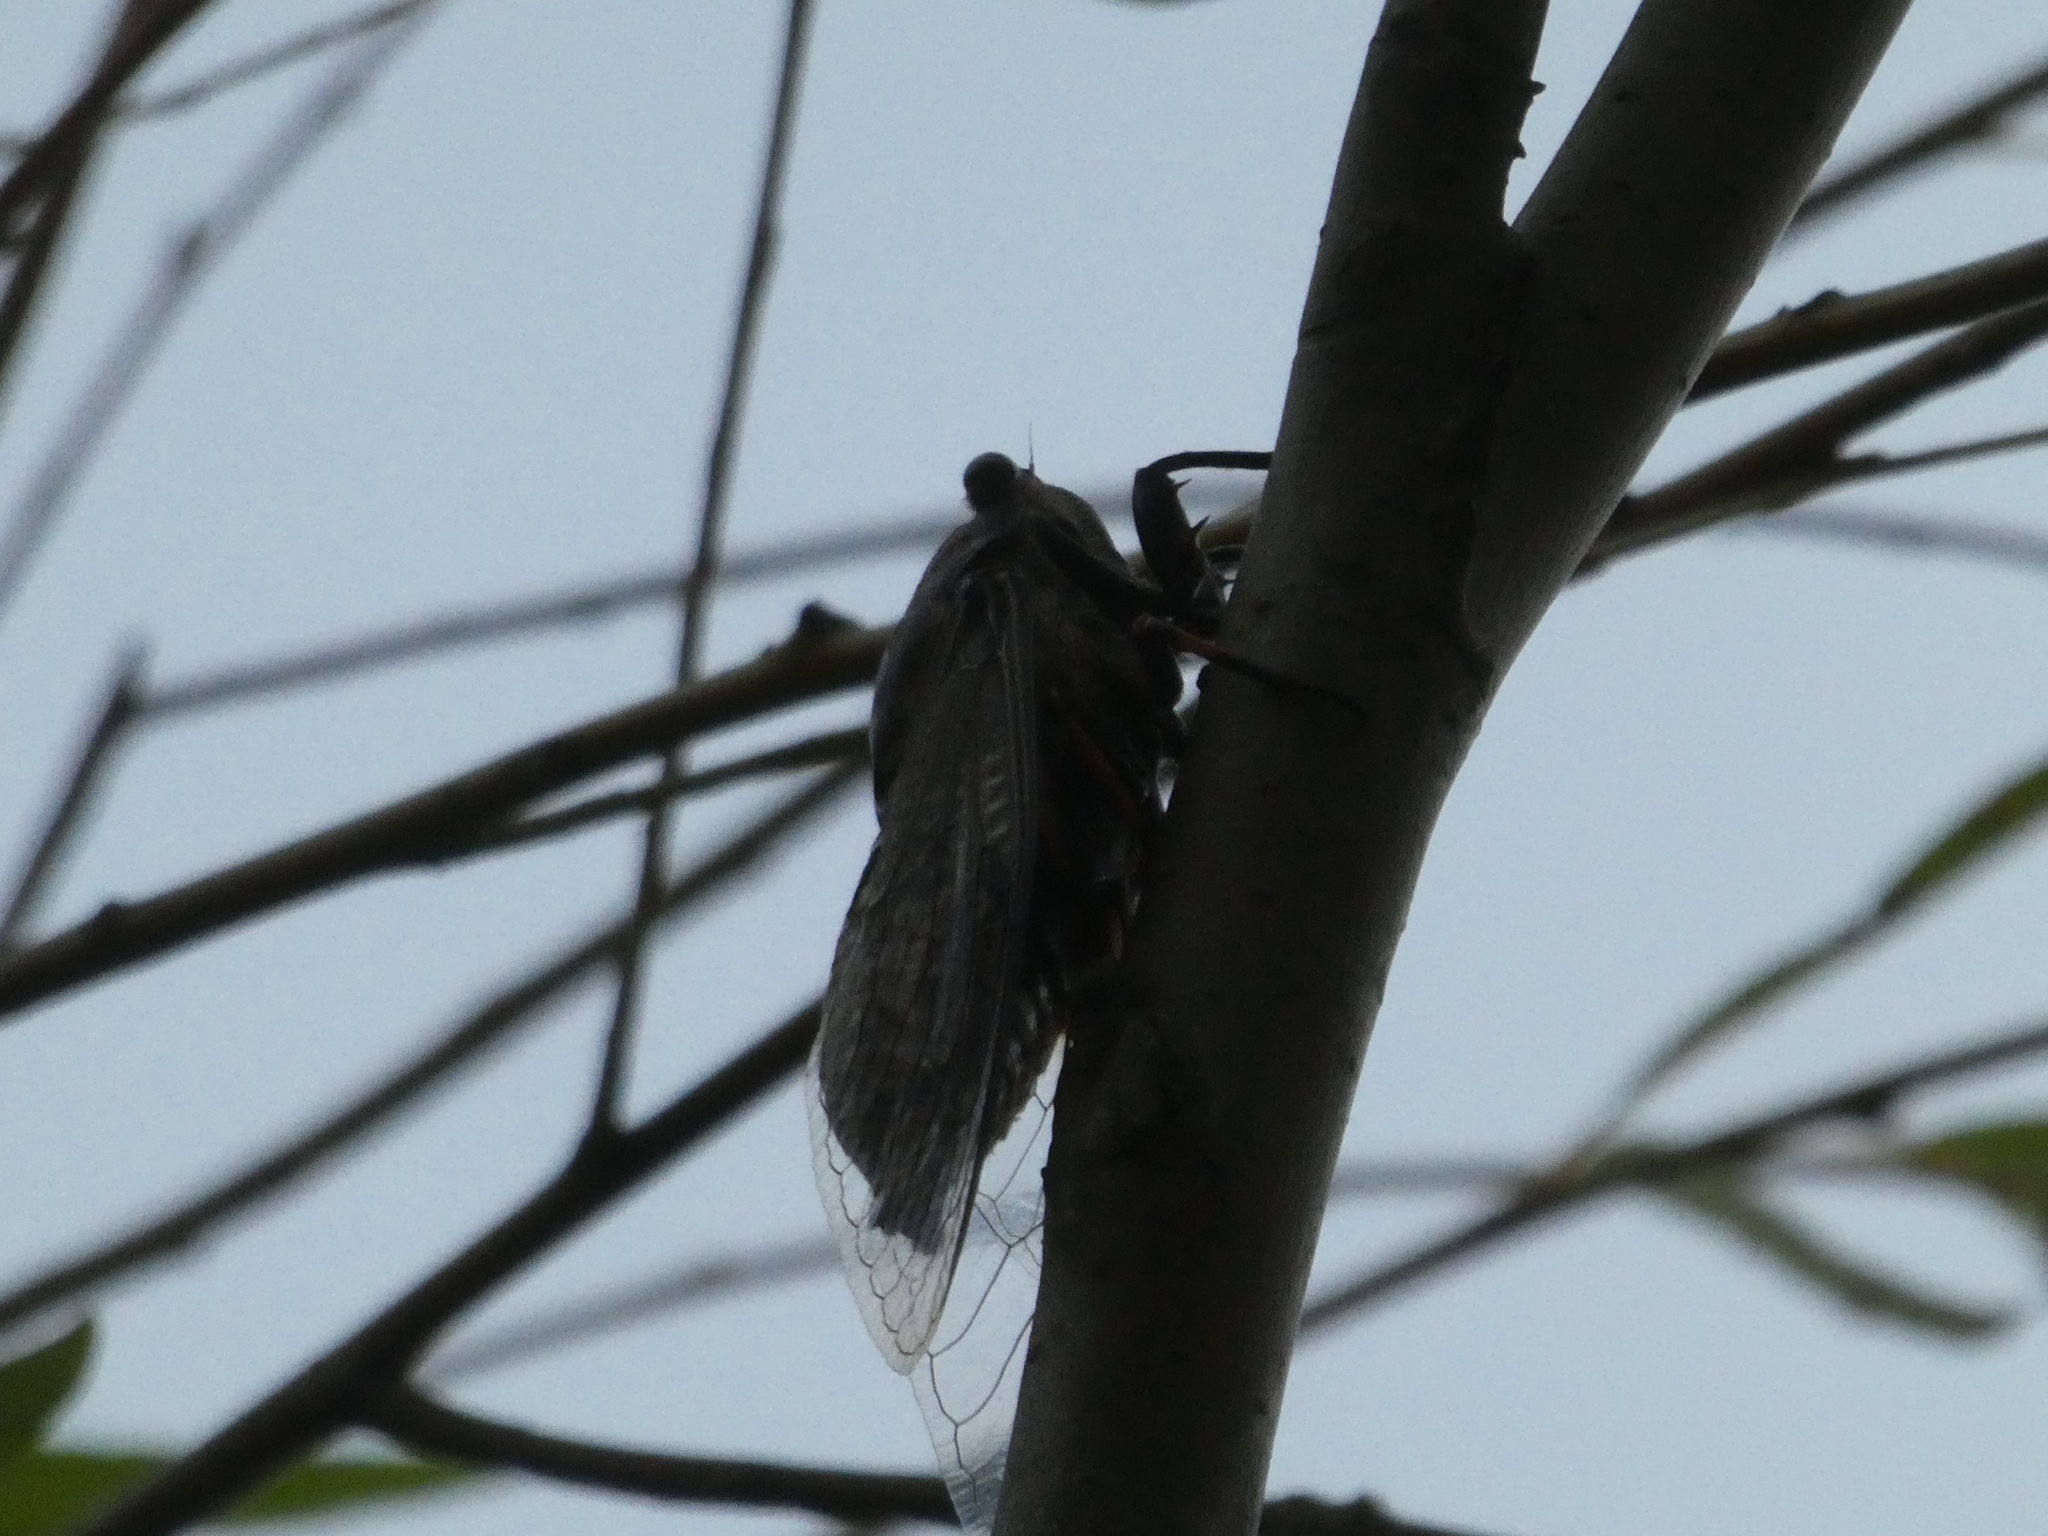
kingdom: Animalia
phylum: Arthropoda
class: Insecta
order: Hemiptera
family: Cicadidae
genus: Cryptotympana
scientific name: Cryptotympana atrata
